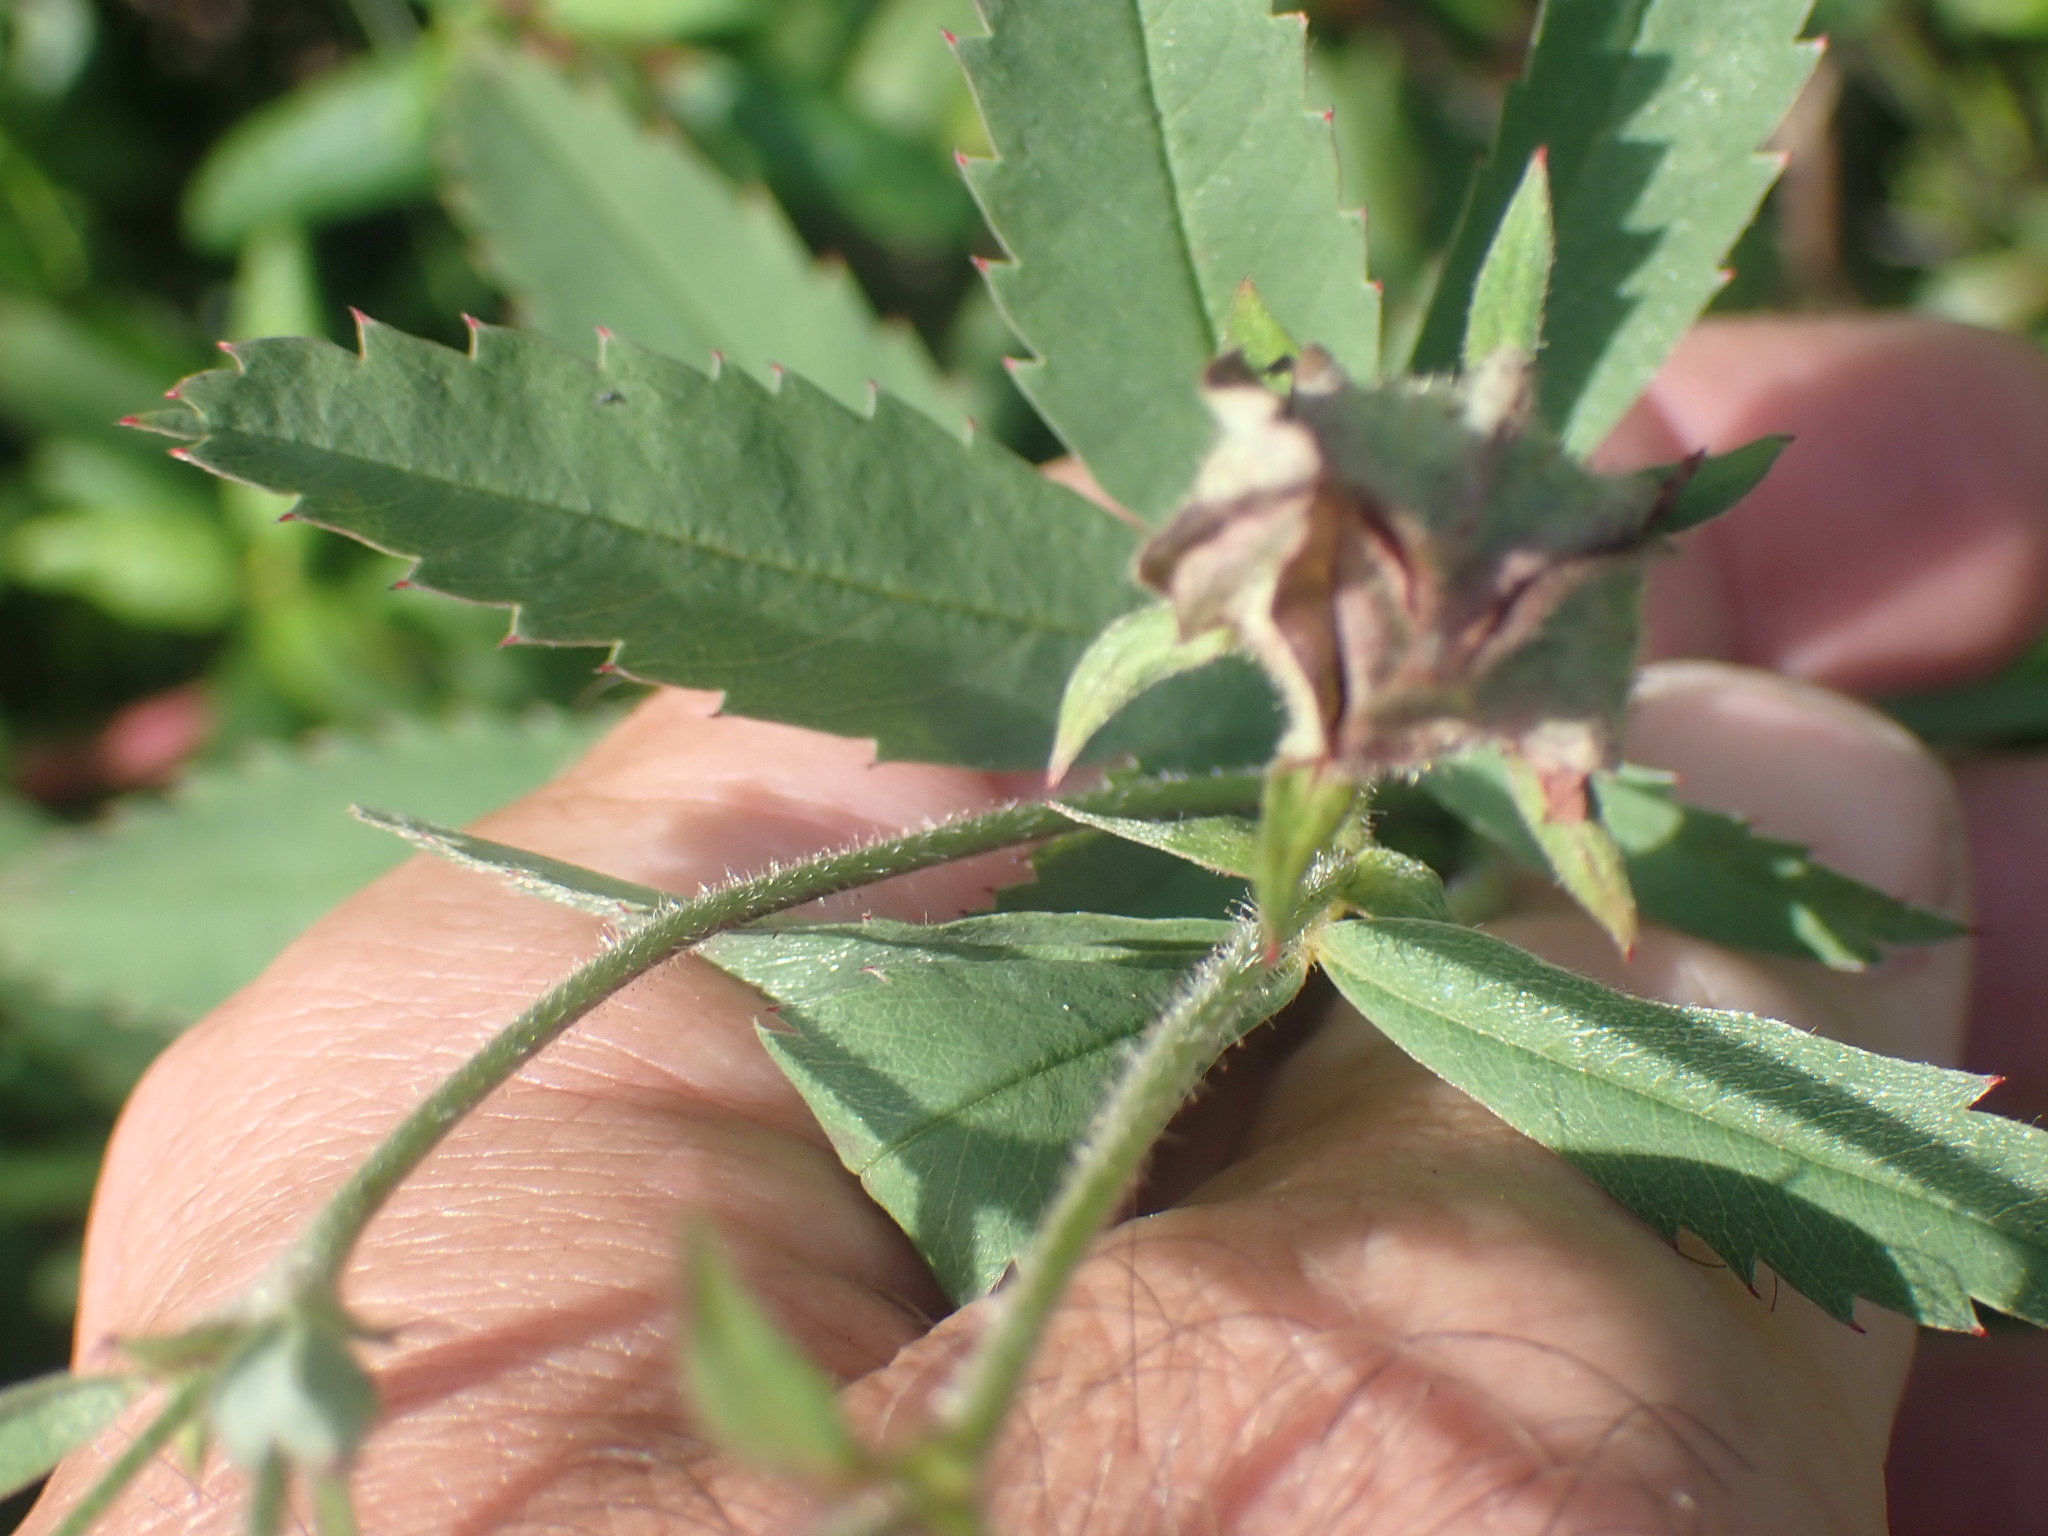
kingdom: Plantae
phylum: Tracheophyta
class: Magnoliopsida
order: Rosales
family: Rosaceae
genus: Comarum
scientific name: Comarum palustre
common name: Marsh cinquefoil
